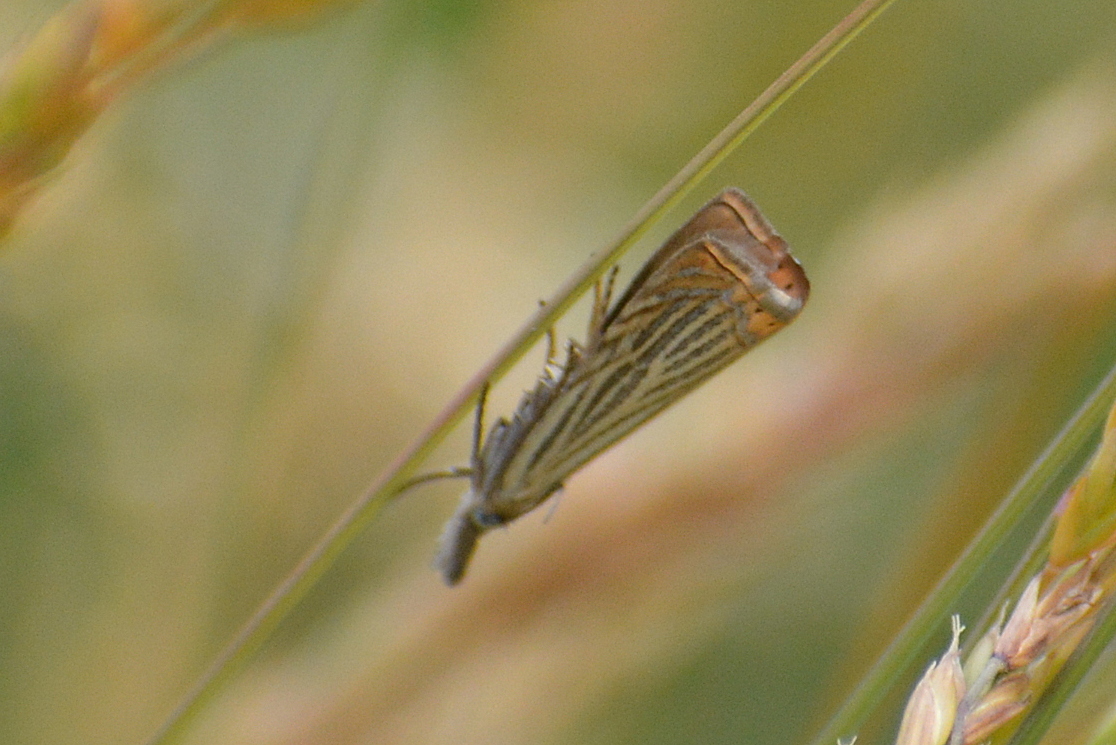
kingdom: Animalia
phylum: Arthropoda
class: Insecta
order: Lepidoptera
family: Crambidae
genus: Chrysoteuchia
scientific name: Chrysoteuchia culmella
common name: Garden grass-veneer
